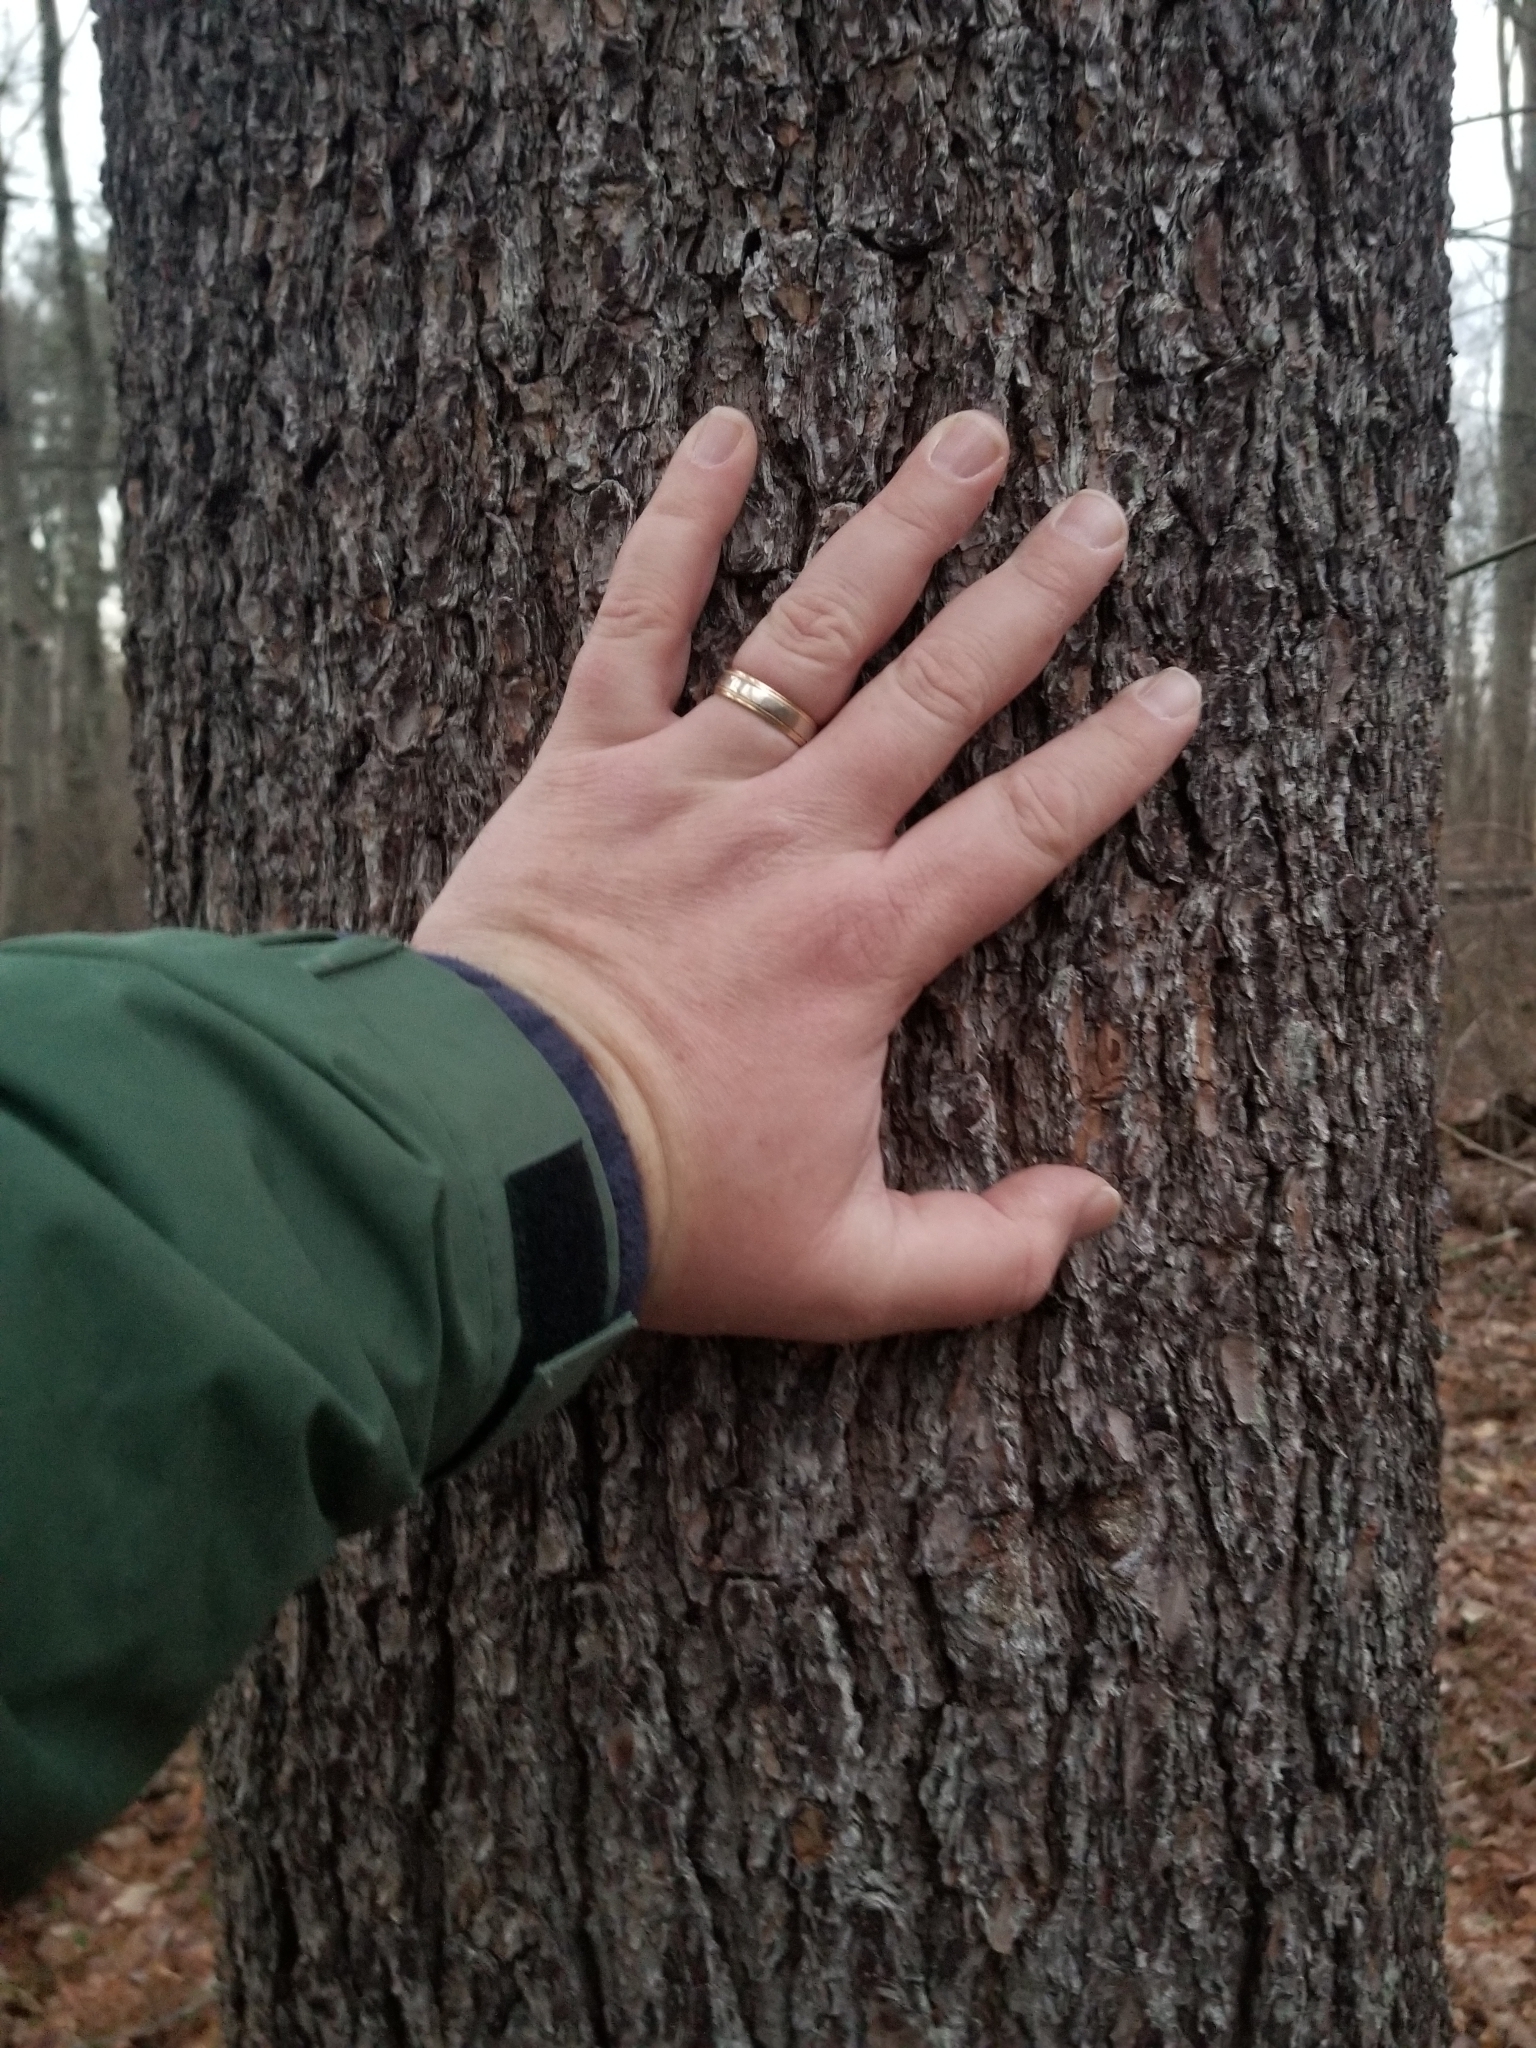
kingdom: Plantae
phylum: Tracheophyta
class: Pinopsida
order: Pinales
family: Pinaceae
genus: Pinus
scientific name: Pinus strobus
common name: Weymouth pine
